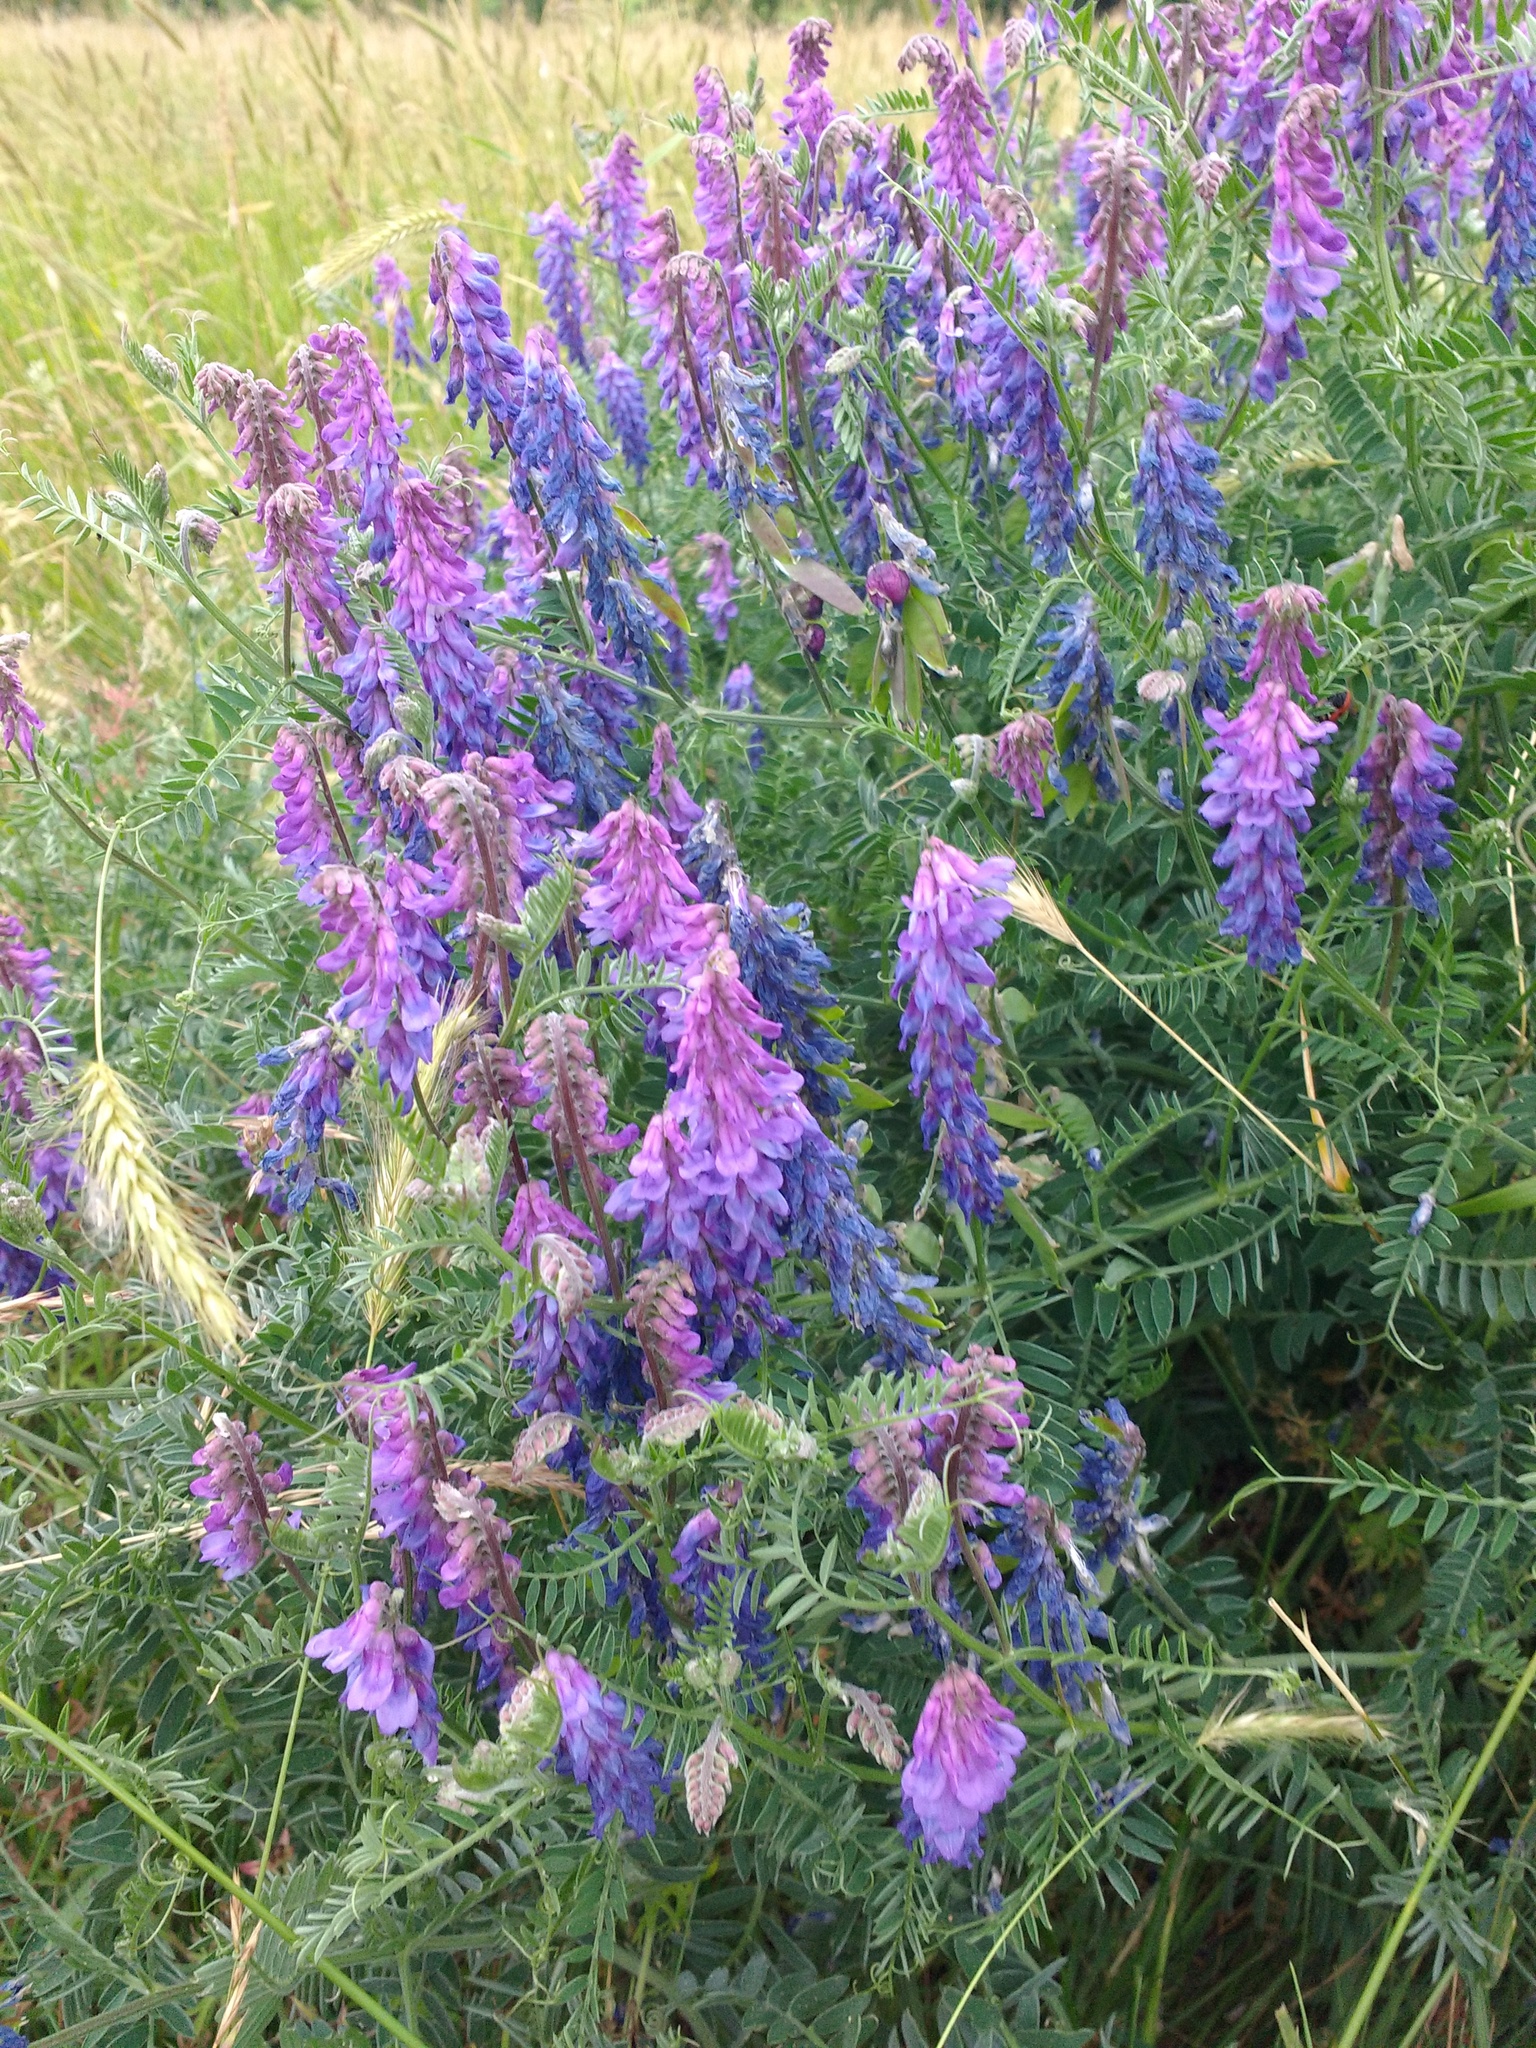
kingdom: Plantae
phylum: Tracheophyta
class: Magnoliopsida
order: Fabales
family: Fabaceae
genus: Vicia
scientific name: Vicia cracca
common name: Bird vetch
